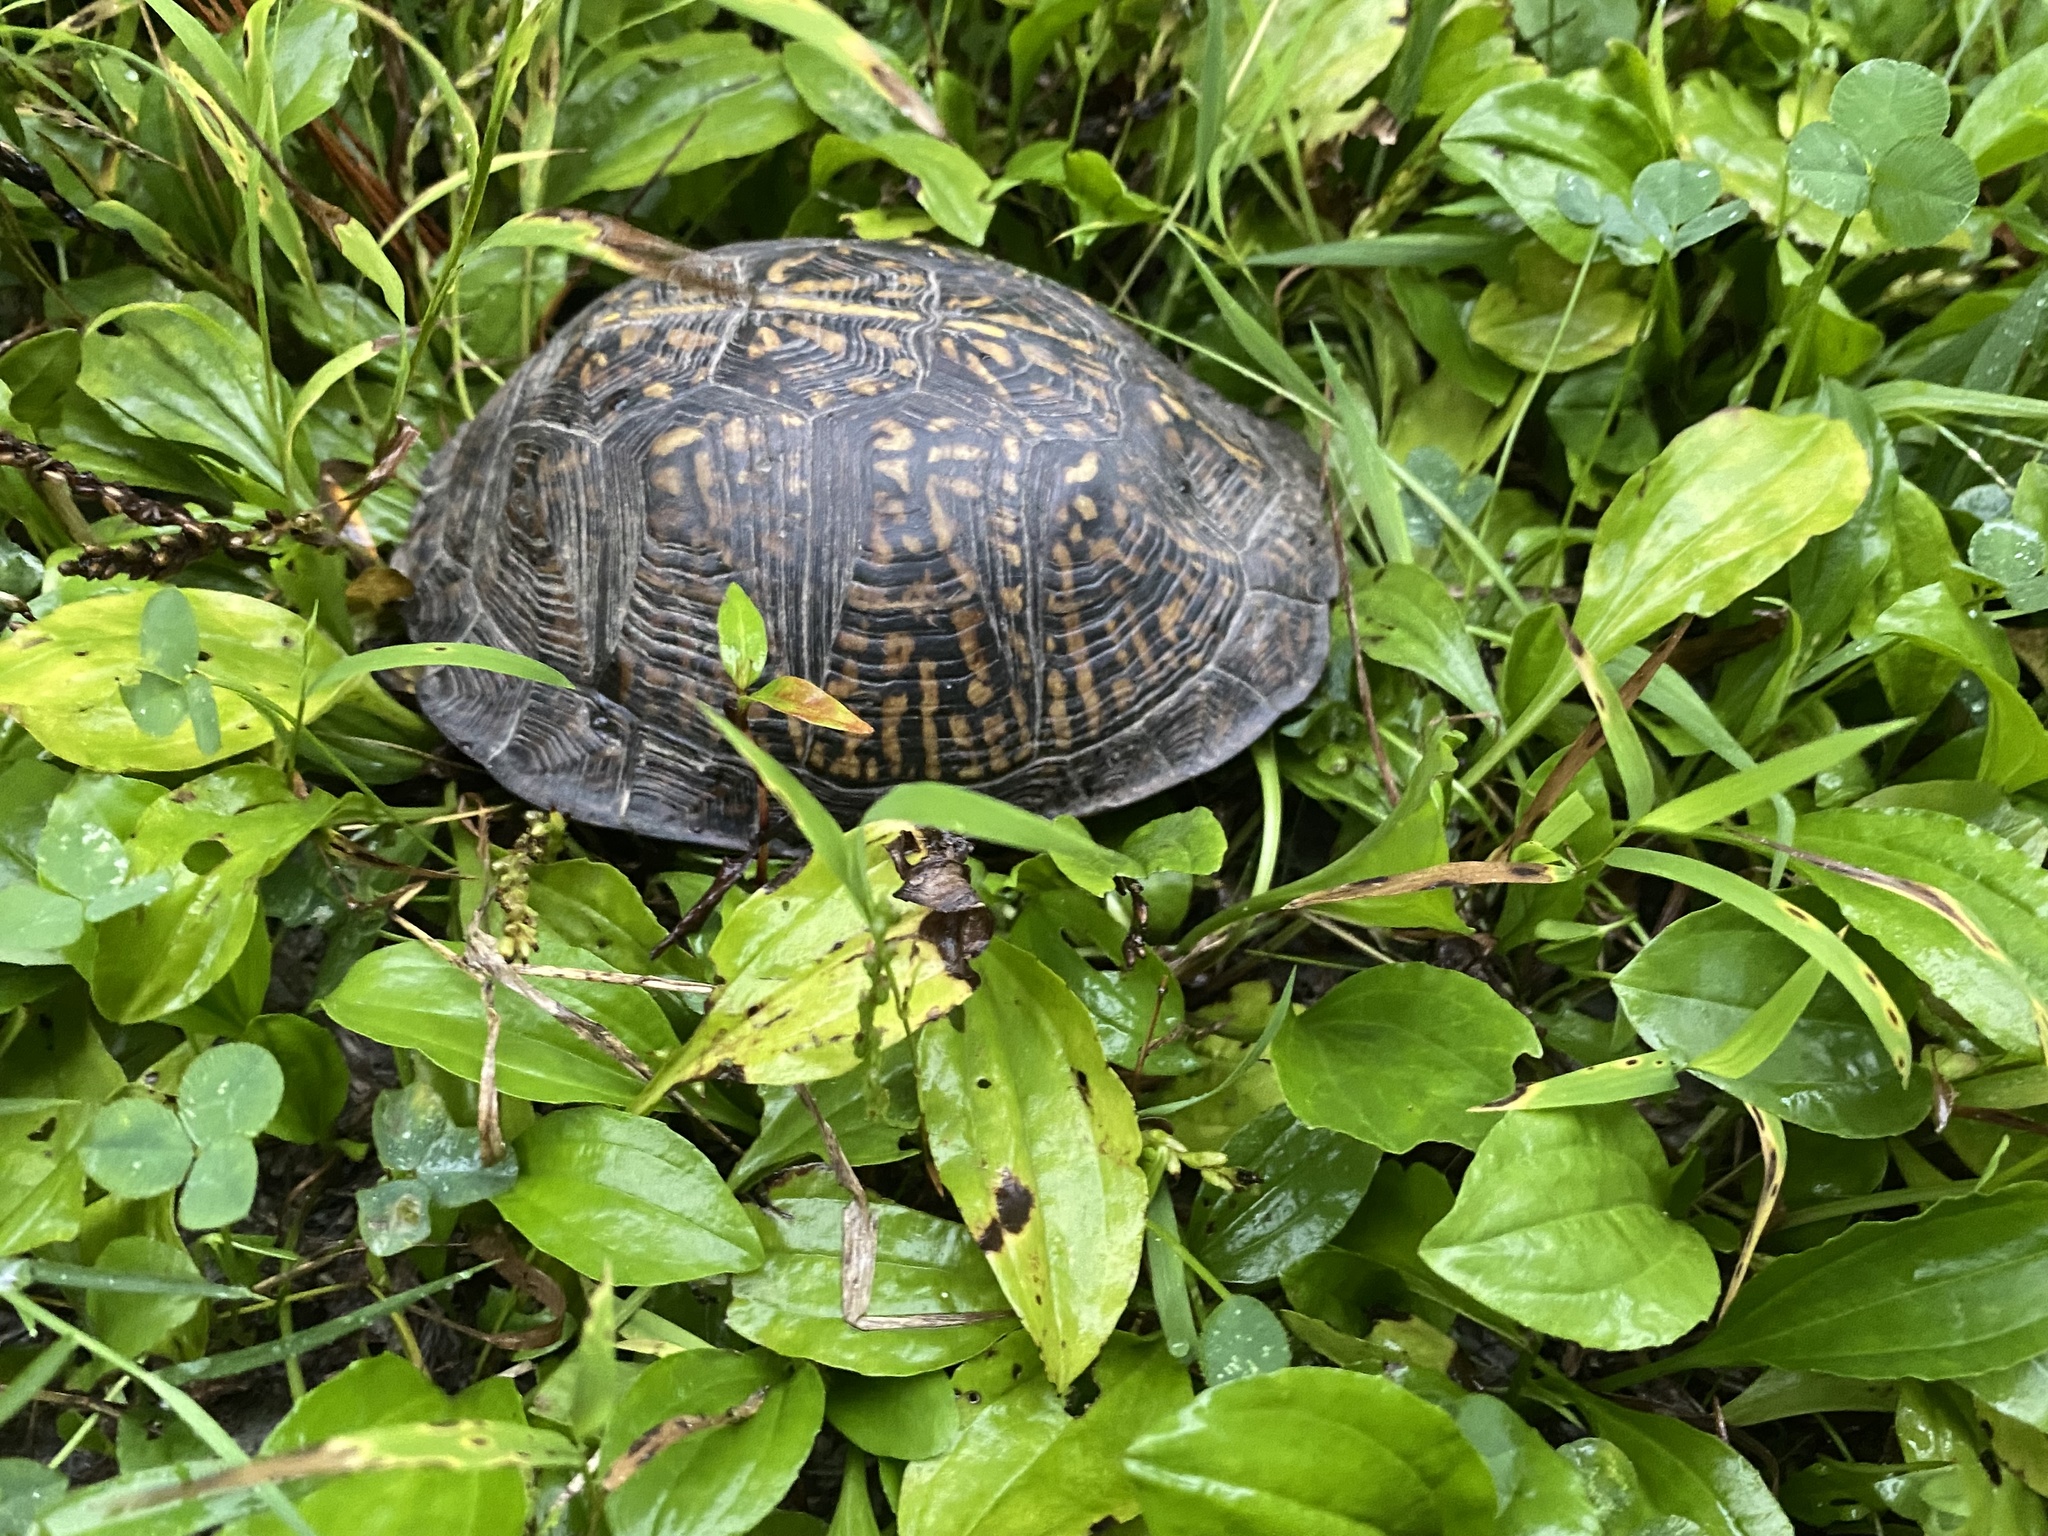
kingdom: Animalia
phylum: Chordata
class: Testudines
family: Emydidae
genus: Terrapene
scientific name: Terrapene carolina
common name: Common box turtle
